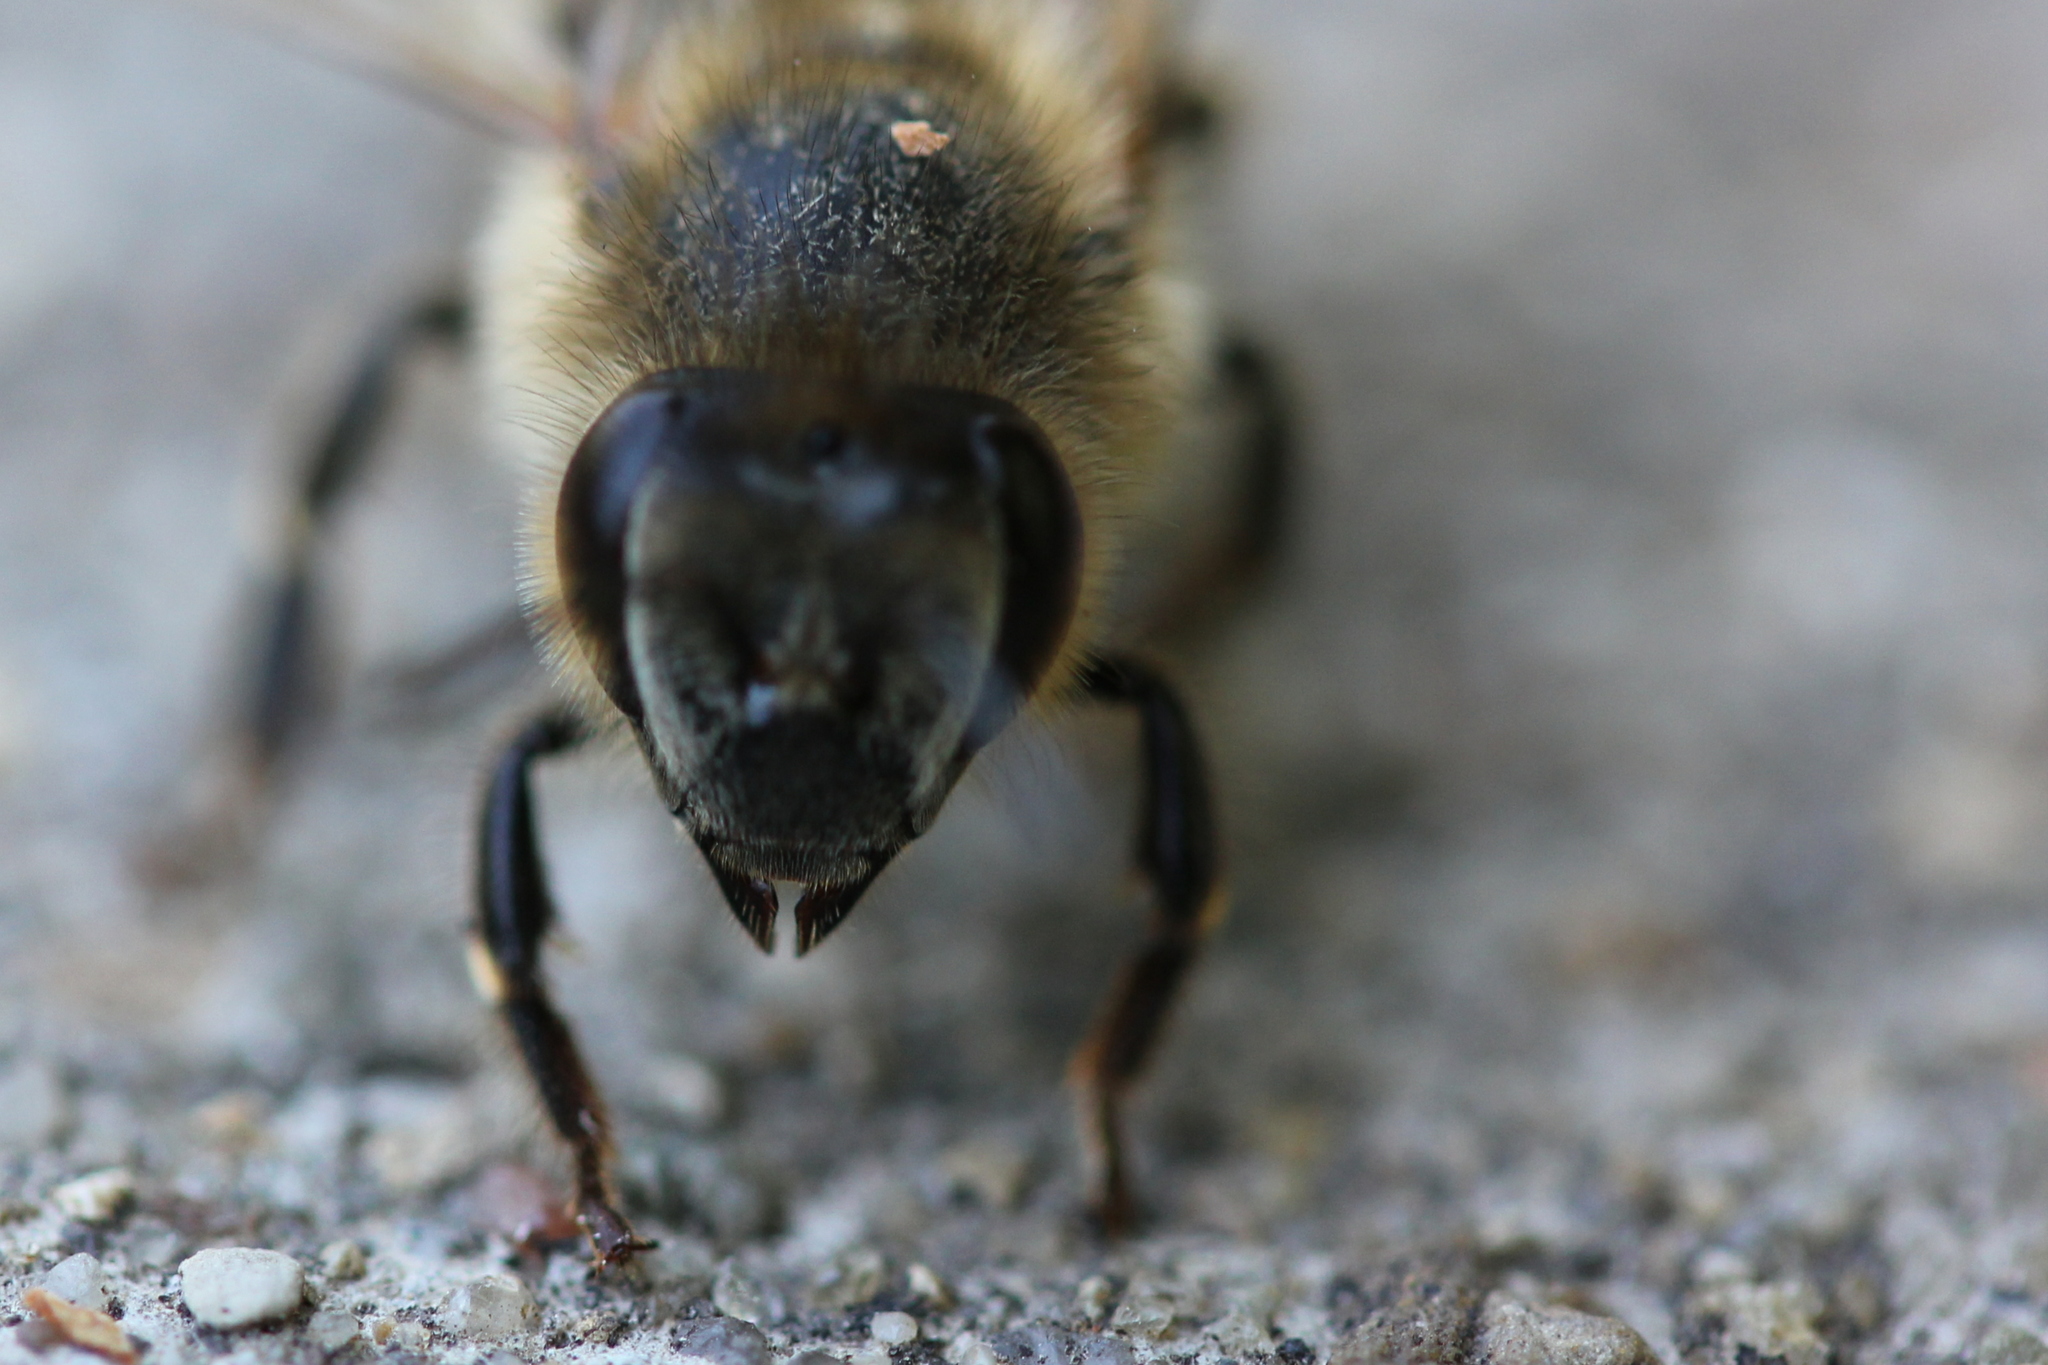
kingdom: Animalia
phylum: Arthropoda
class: Insecta
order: Hymenoptera
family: Apidae
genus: Apis
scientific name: Apis mellifera
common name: Honey bee
